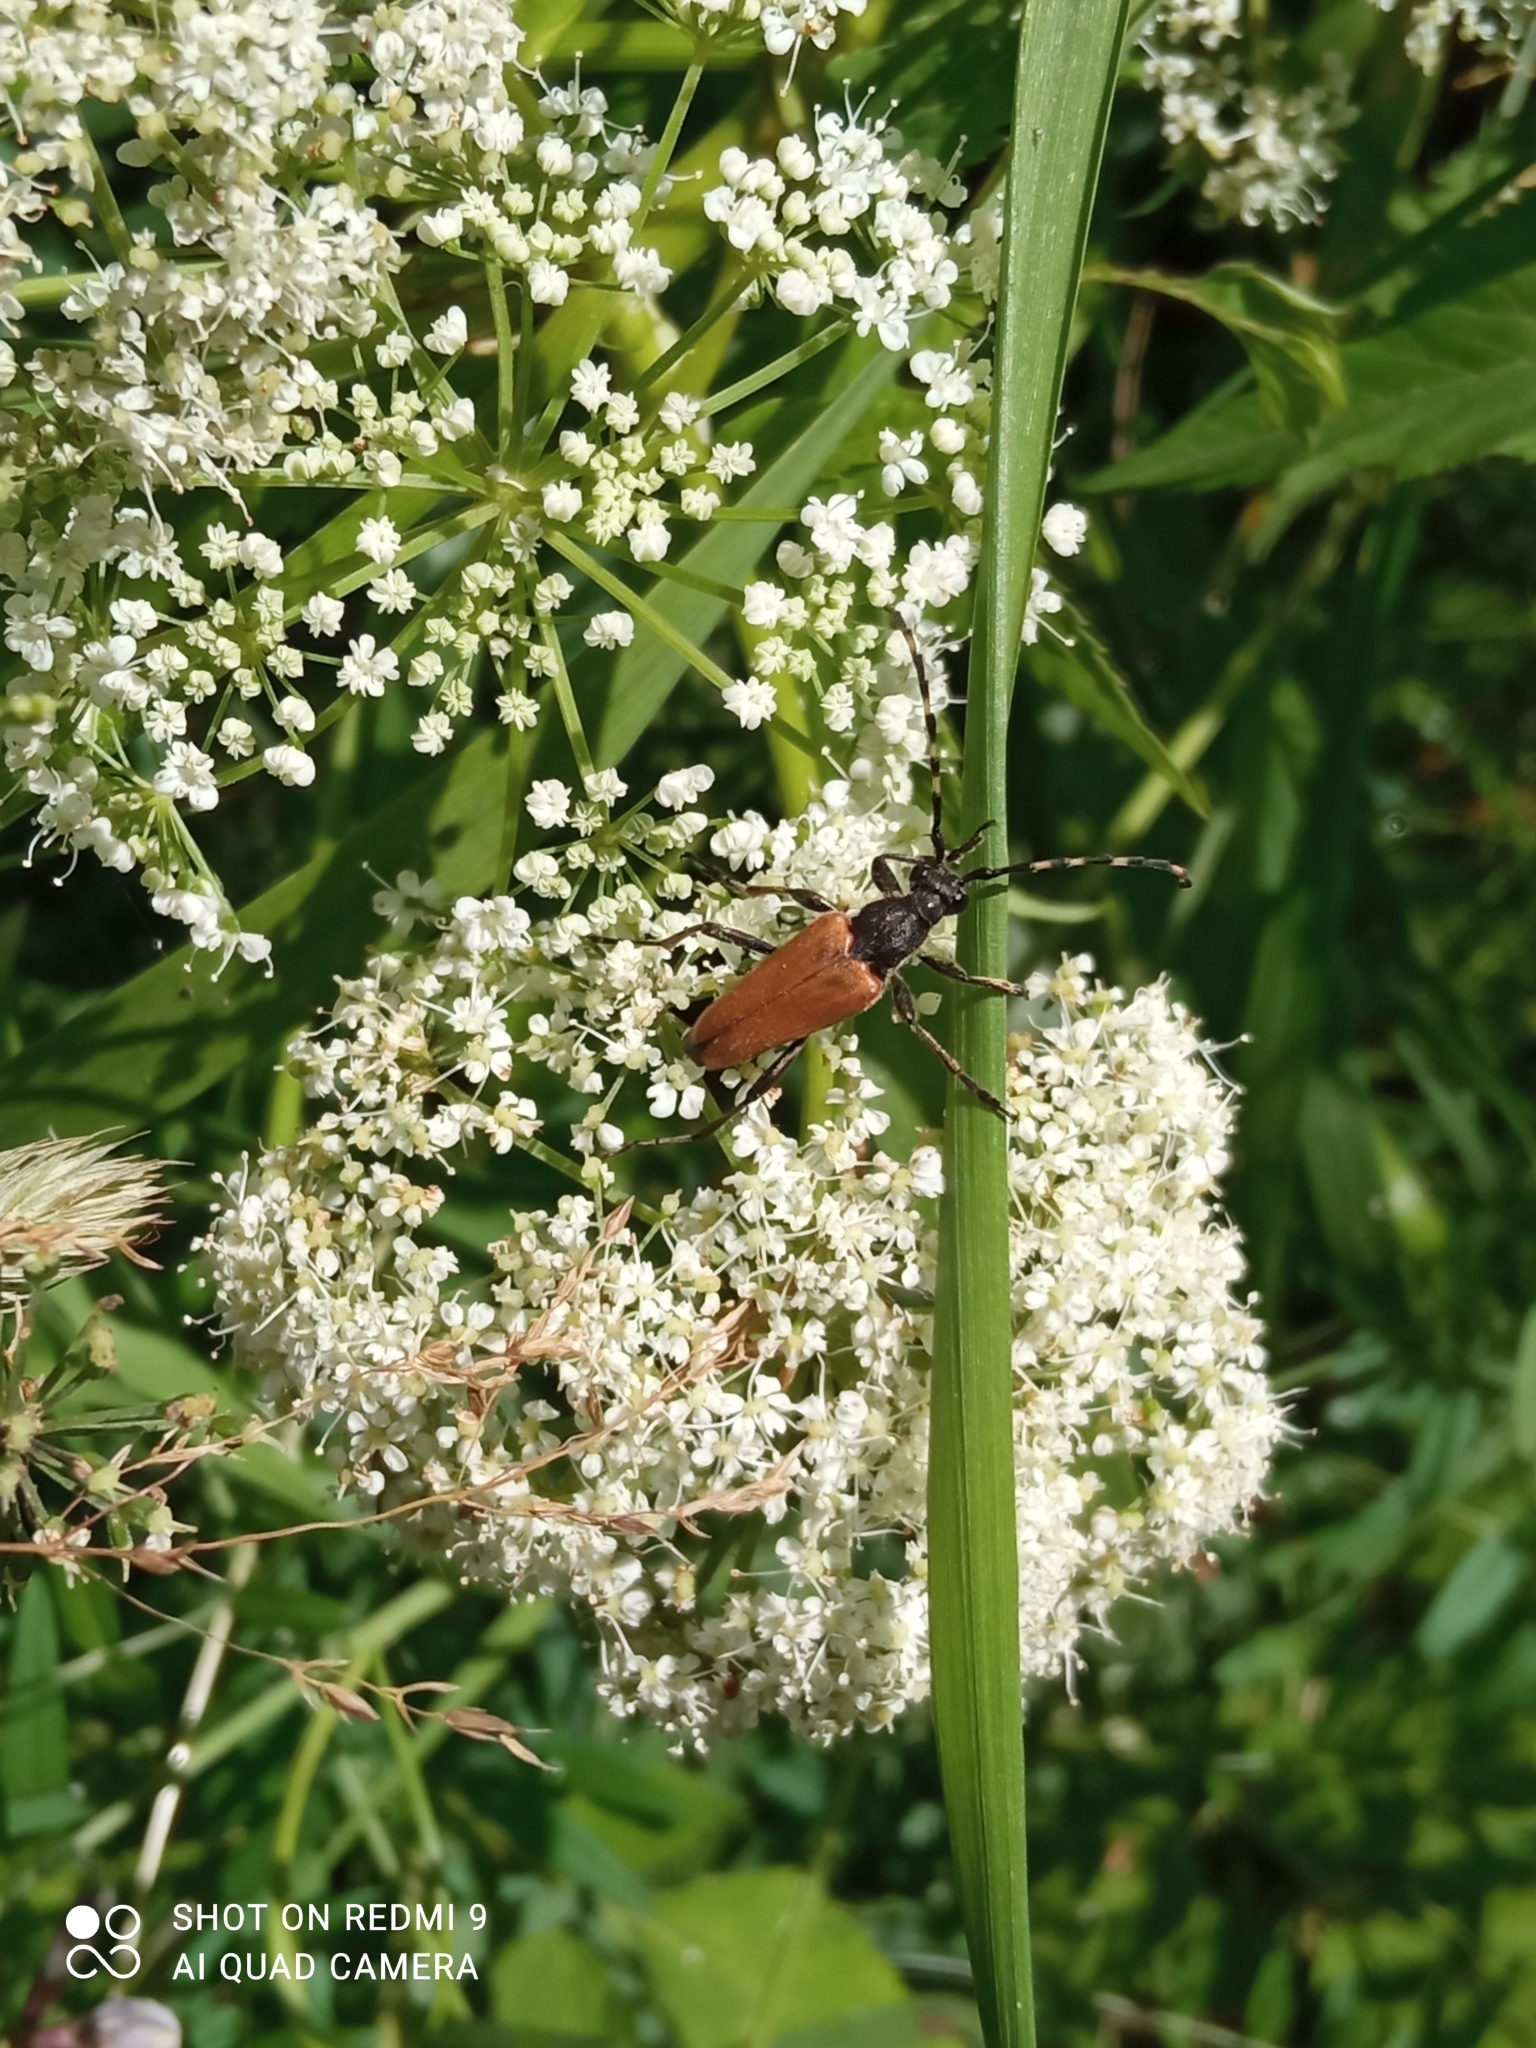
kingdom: Animalia
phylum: Arthropoda
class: Insecta
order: Coleoptera
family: Cerambycidae
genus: Stictoleptura
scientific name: Stictoleptura variicornis
